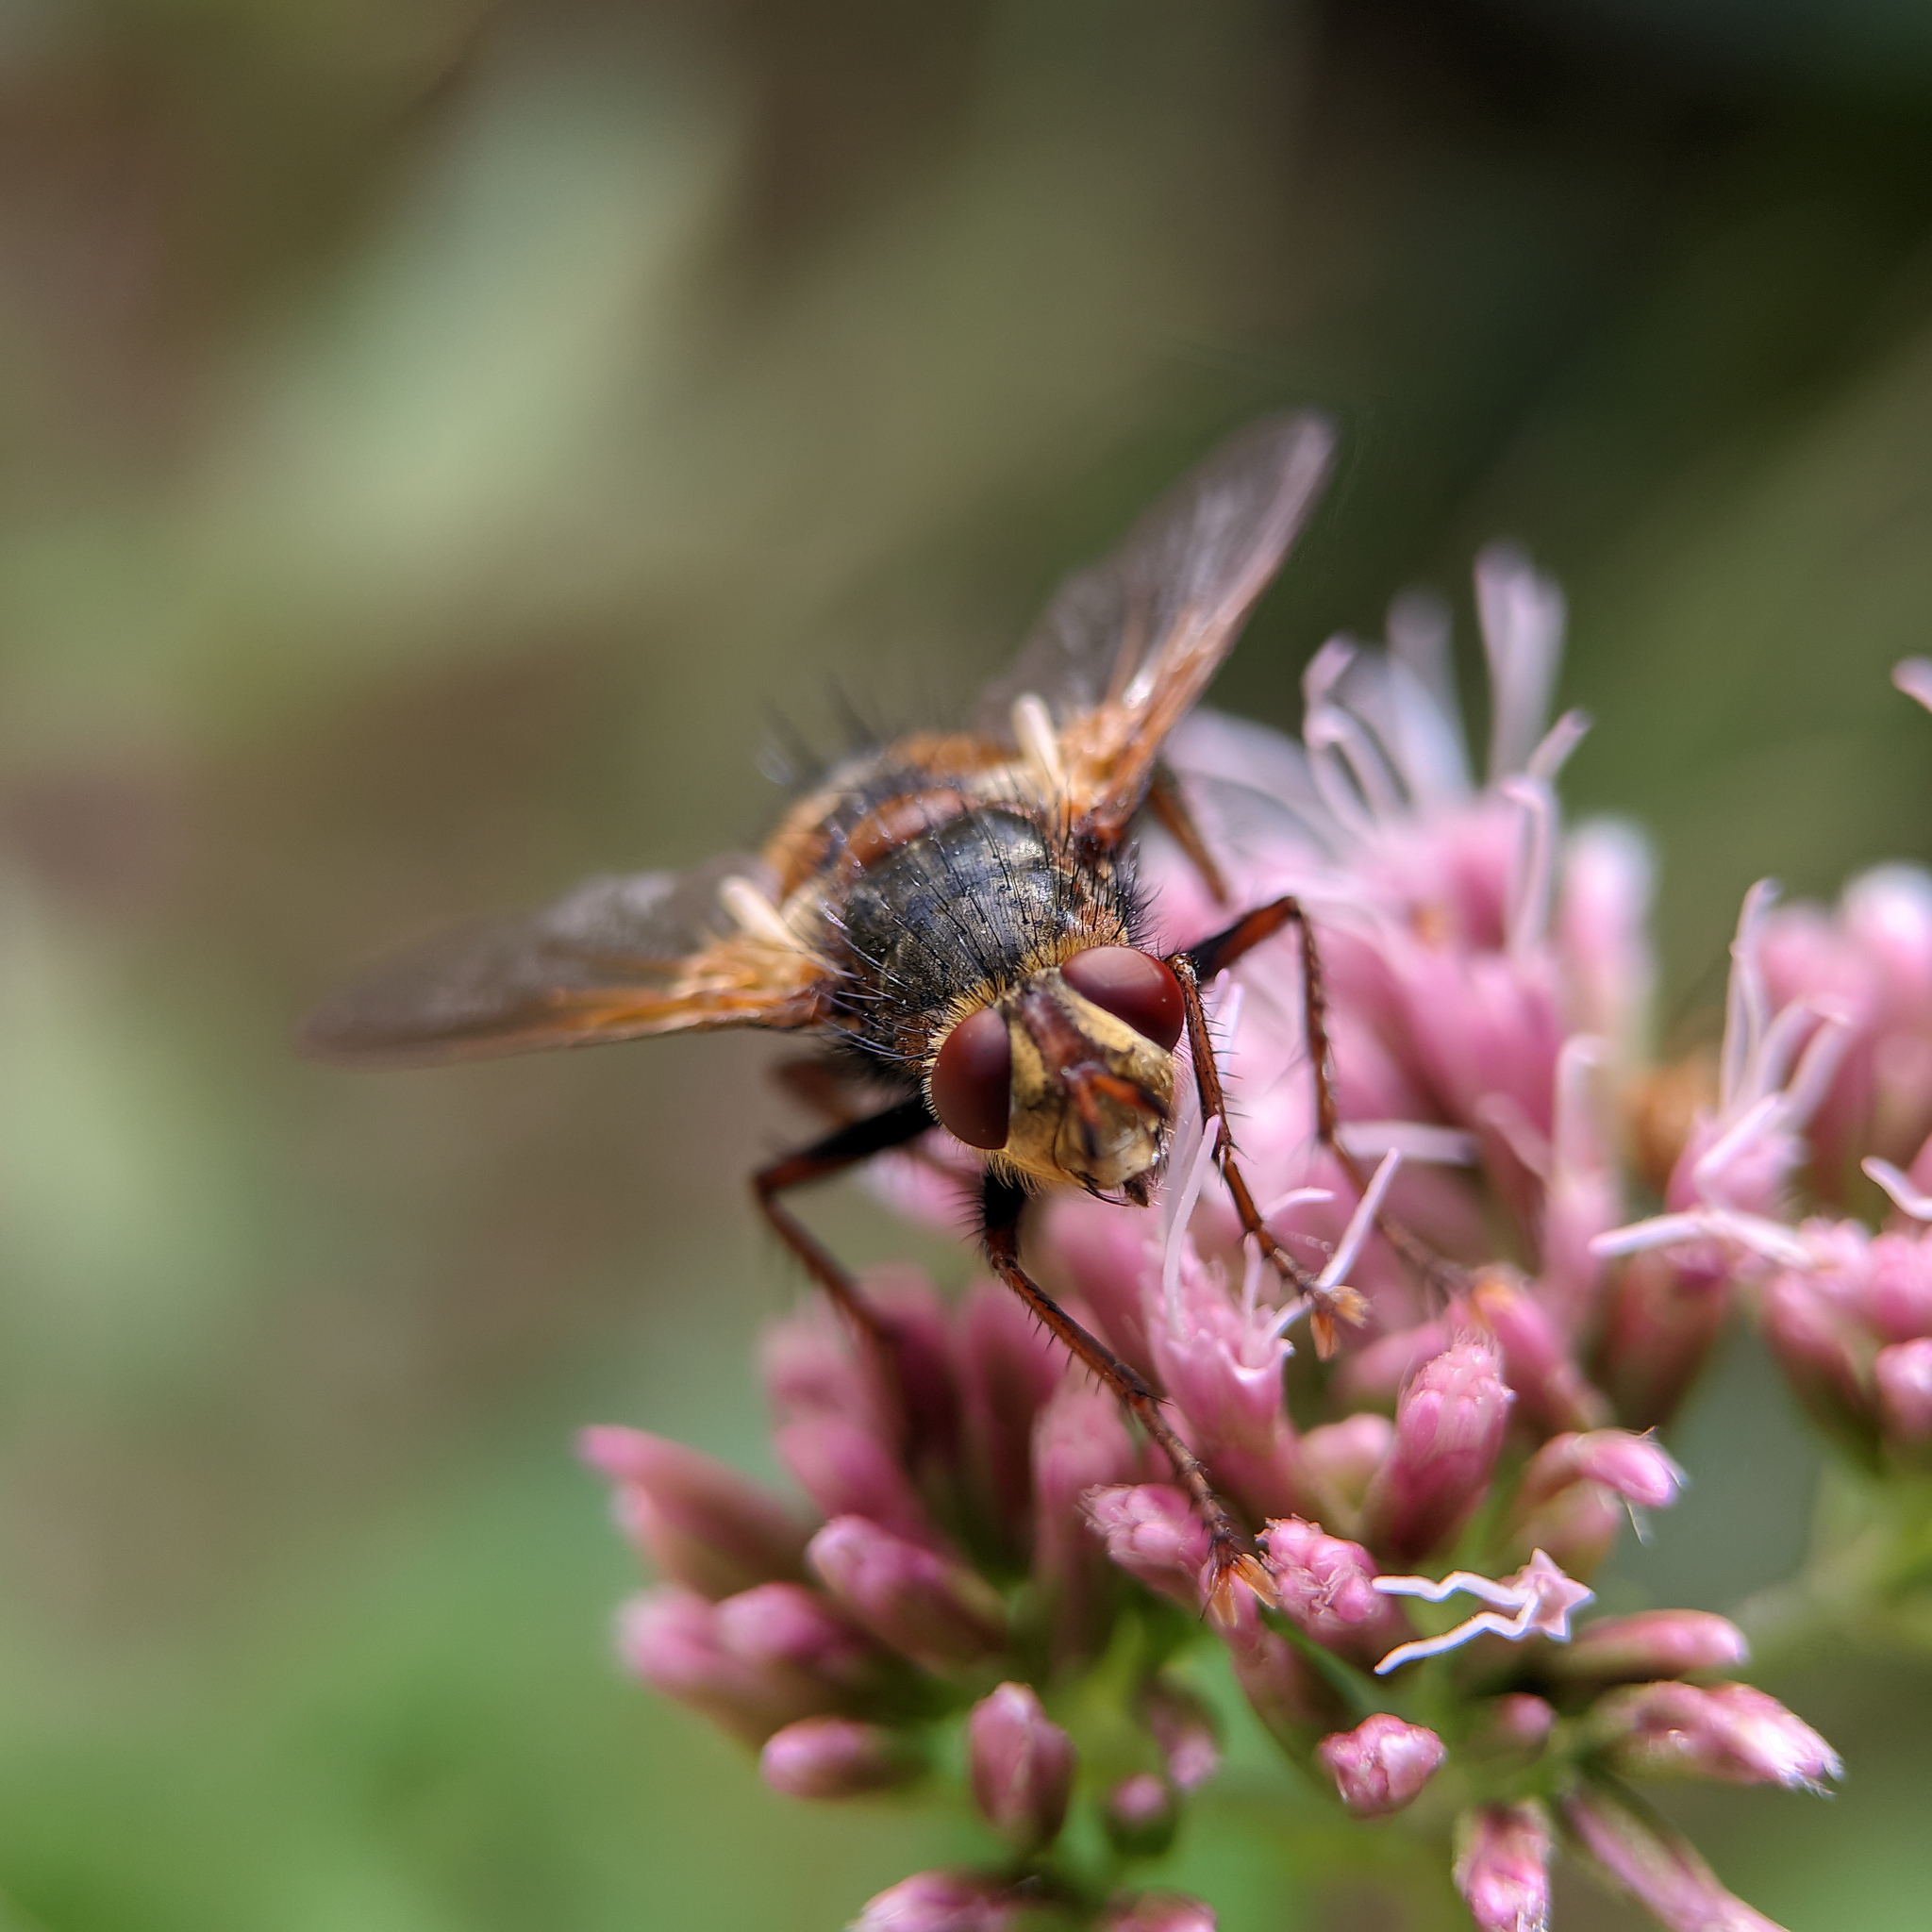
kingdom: Animalia
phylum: Arthropoda
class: Insecta
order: Diptera
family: Tachinidae
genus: Tachina
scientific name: Tachina fera
